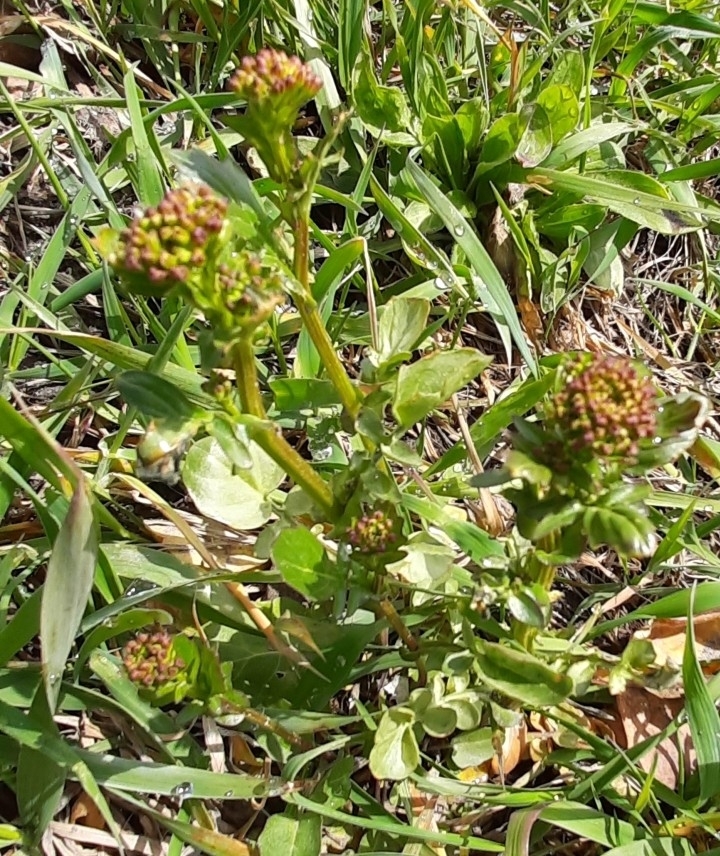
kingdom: Plantae
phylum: Tracheophyta
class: Magnoliopsida
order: Brassicales
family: Brassicaceae
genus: Barbarea
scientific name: Barbarea vulgaris
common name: Cressy-greens
